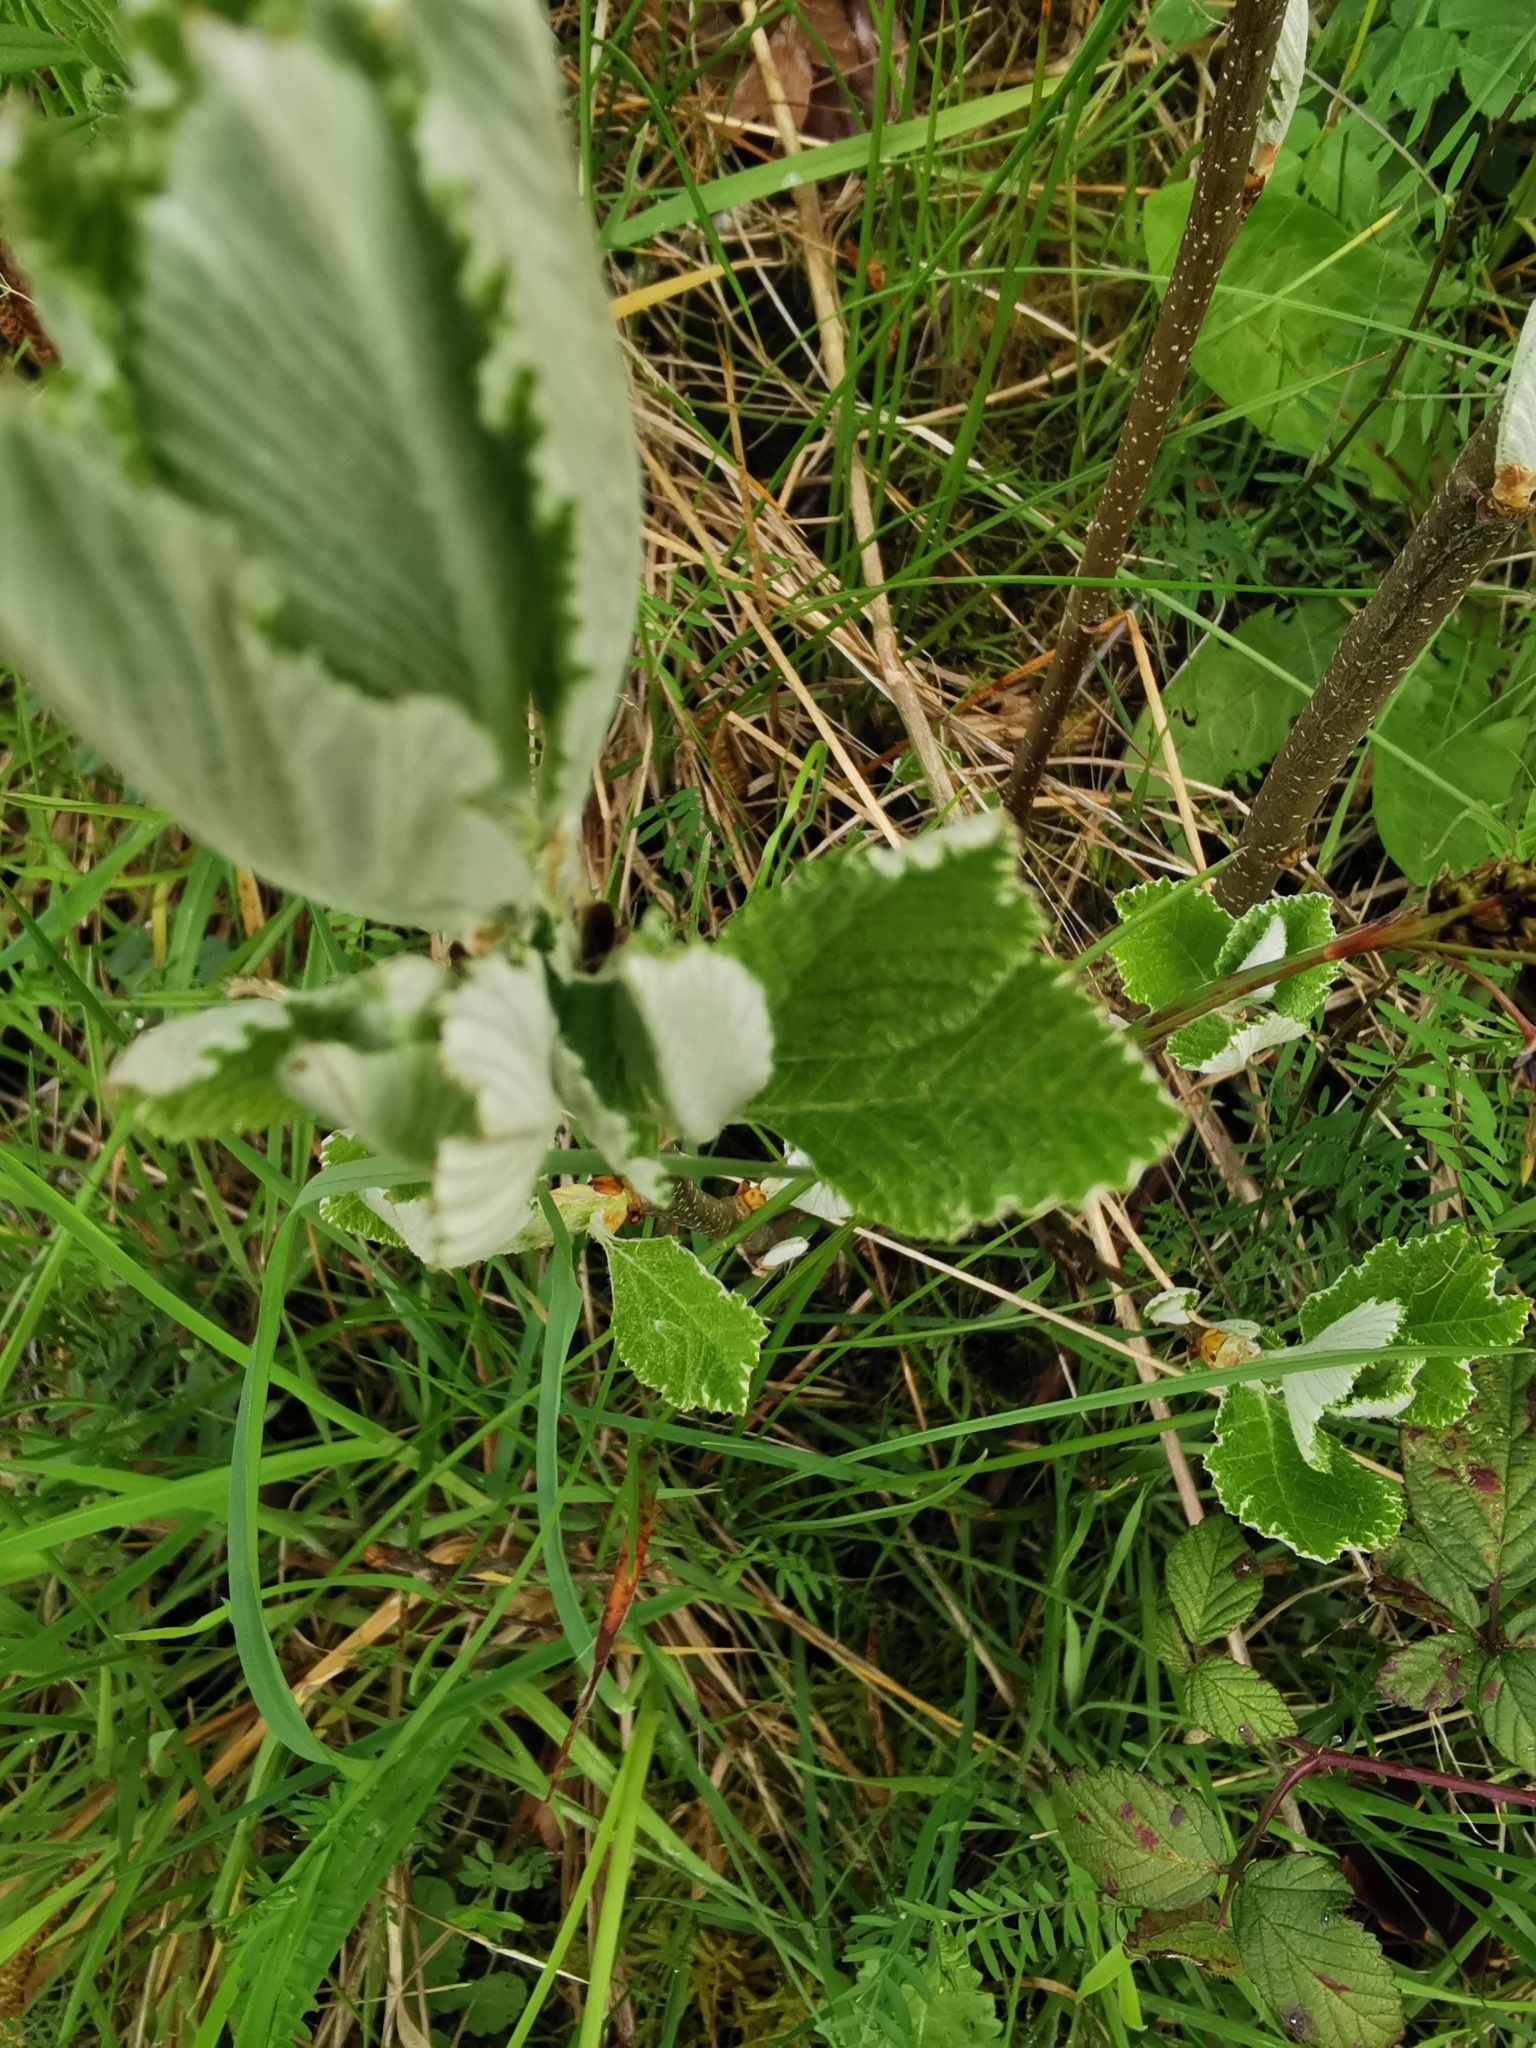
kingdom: Plantae
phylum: Tracheophyta
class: Magnoliopsida
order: Rosales
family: Rosaceae
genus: Aria
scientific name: Aria edulis
